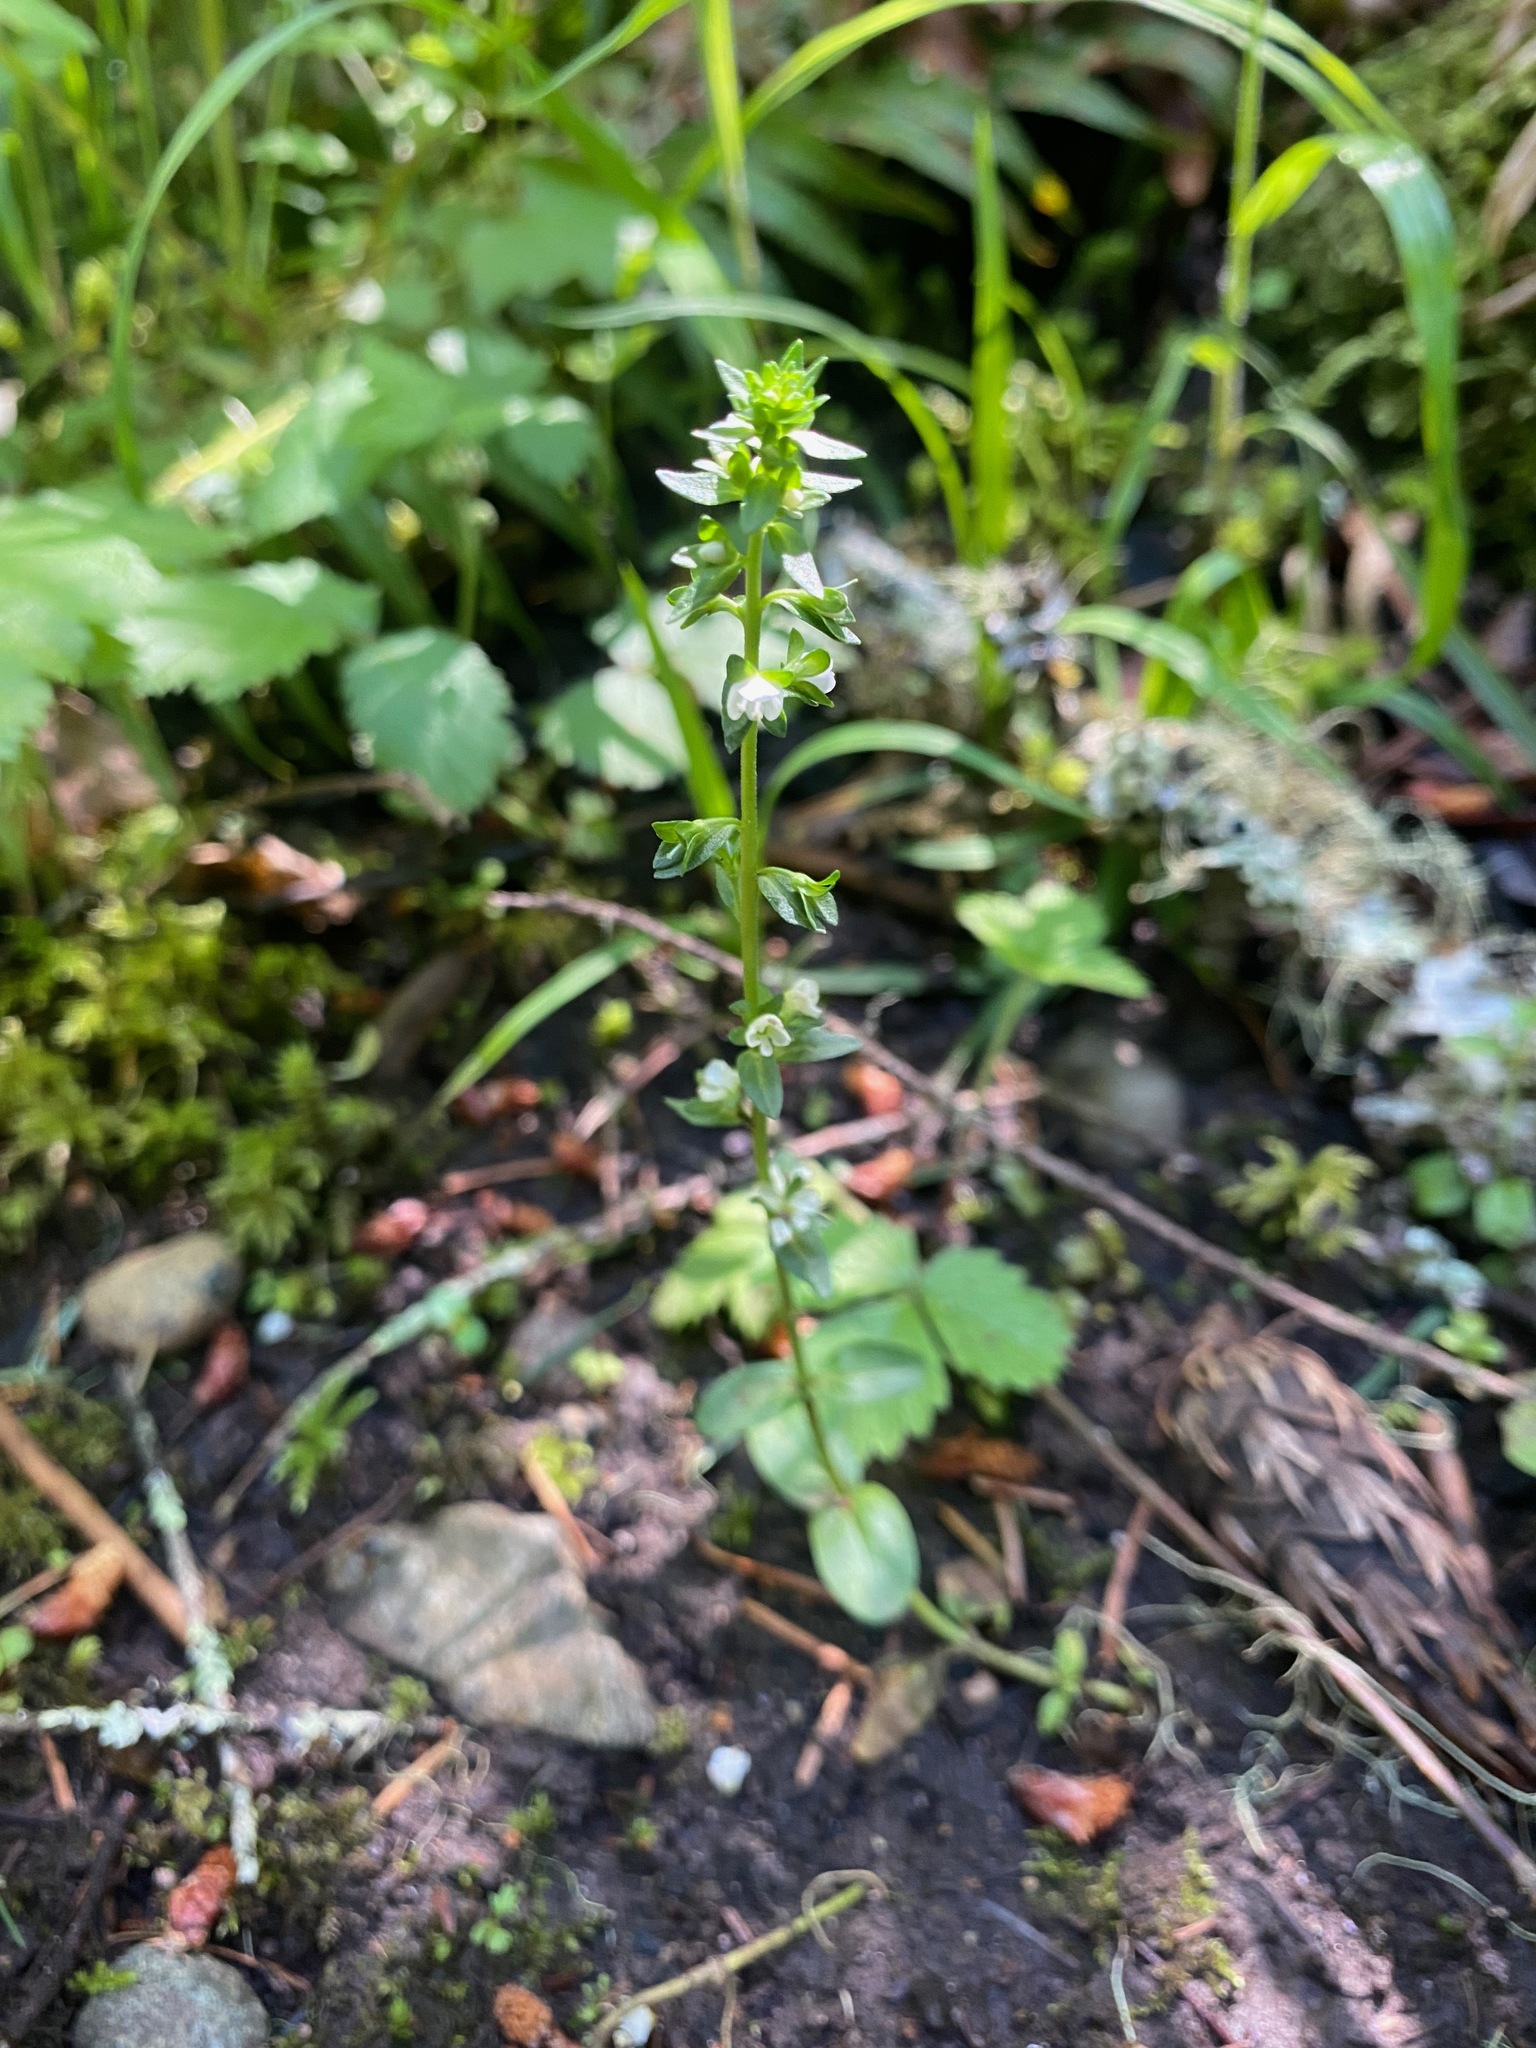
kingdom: Plantae
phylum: Tracheophyta
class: Magnoliopsida
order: Lamiales
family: Plantaginaceae
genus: Veronica
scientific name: Veronica serpyllifolia
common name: Thyme-leaved speedwell
